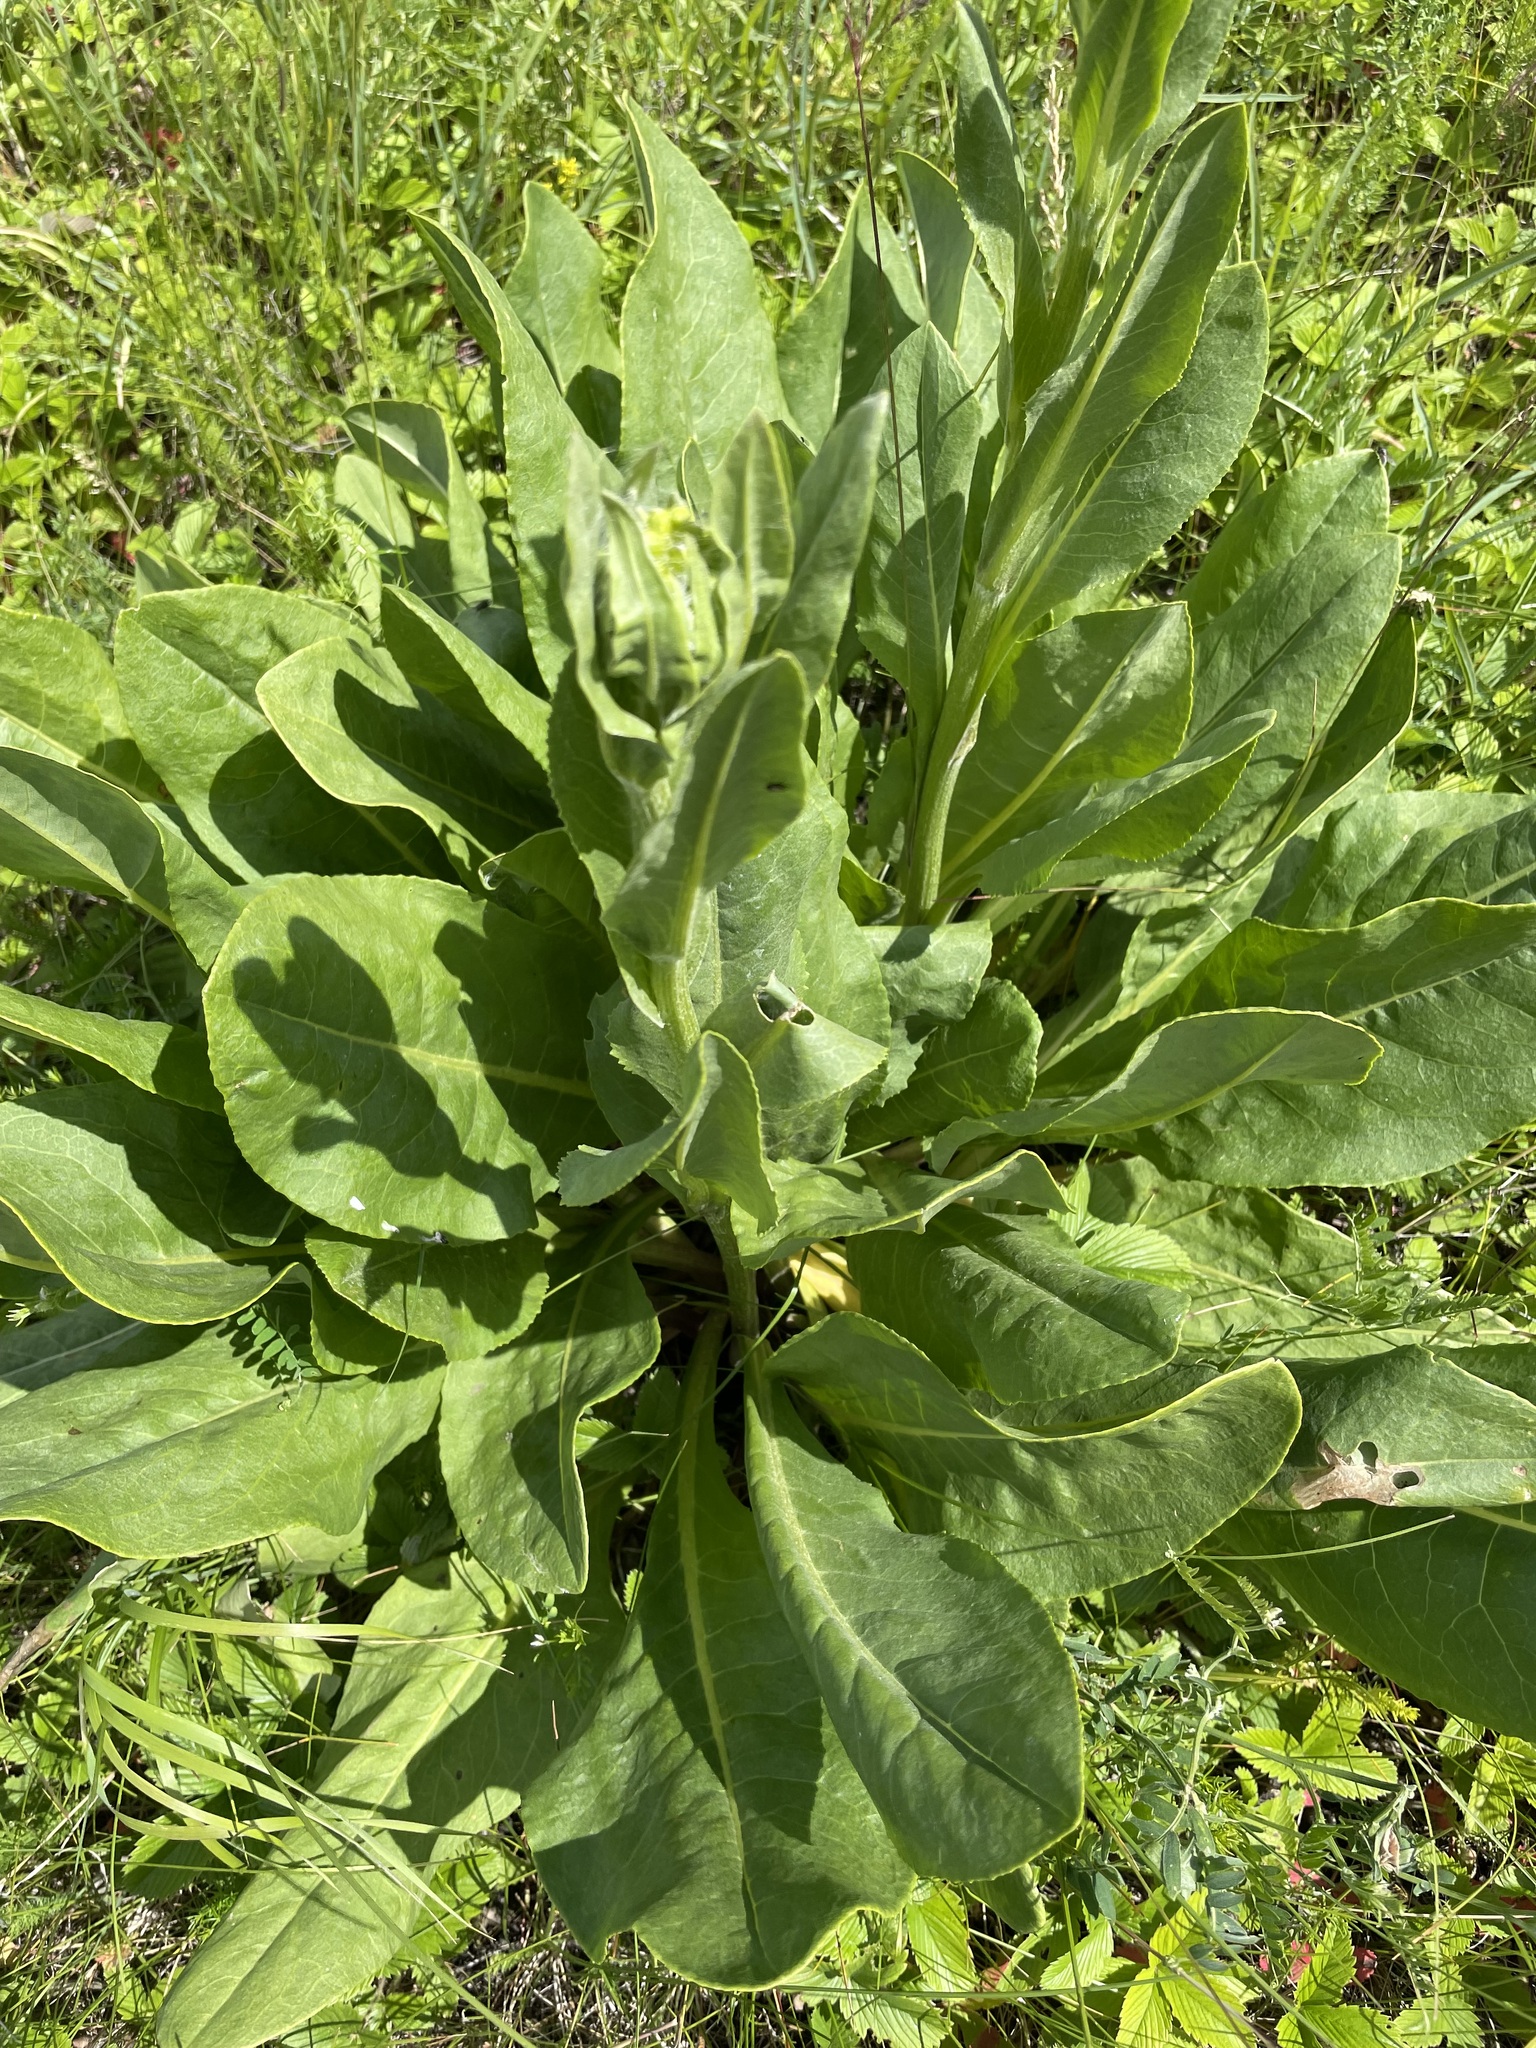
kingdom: Plantae
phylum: Tracheophyta
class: Magnoliopsida
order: Asterales
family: Asteraceae
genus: Senecio
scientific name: Senecio doria
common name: Golden ragwort
